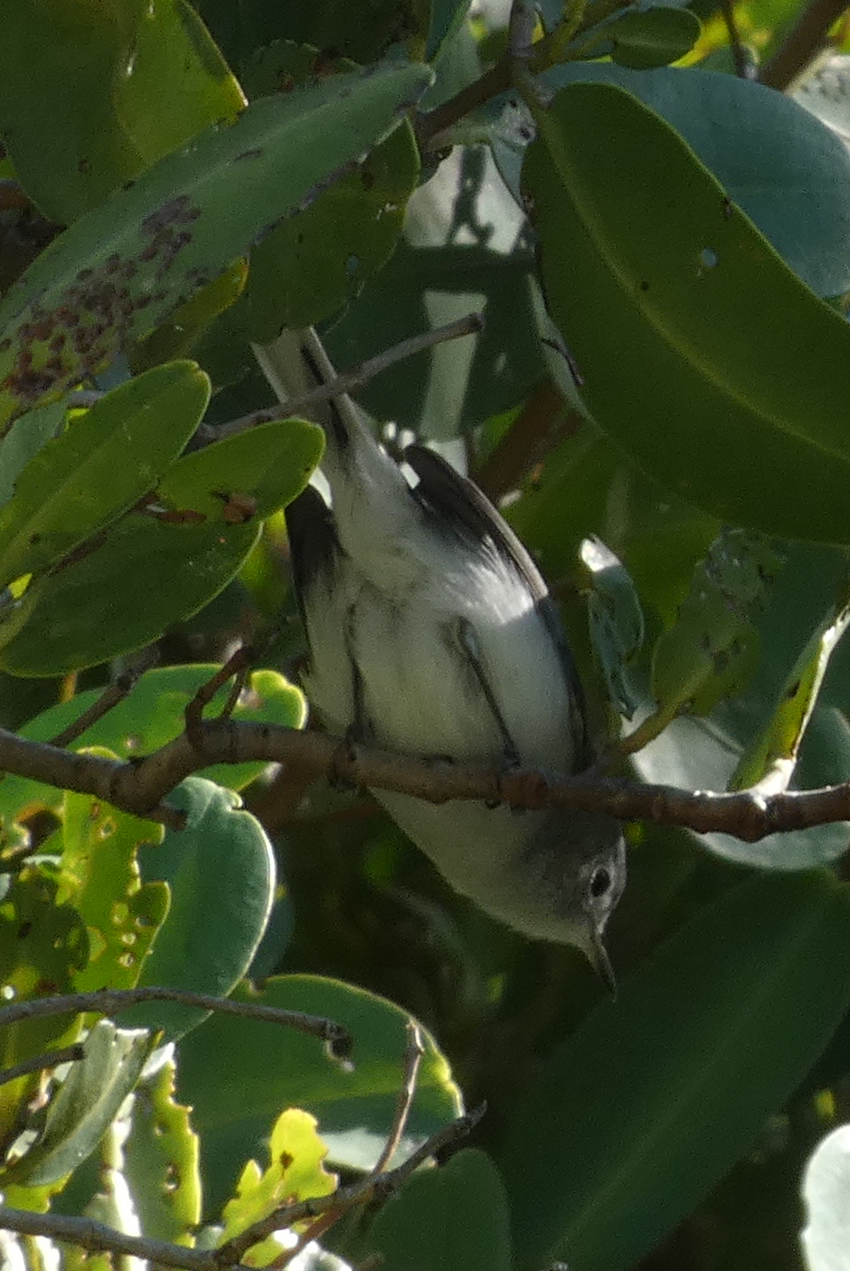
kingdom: Animalia
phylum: Chordata
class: Aves
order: Passeriformes
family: Polioptilidae
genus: Polioptila
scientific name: Polioptila caerulea
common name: Blue-gray gnatcatcher
